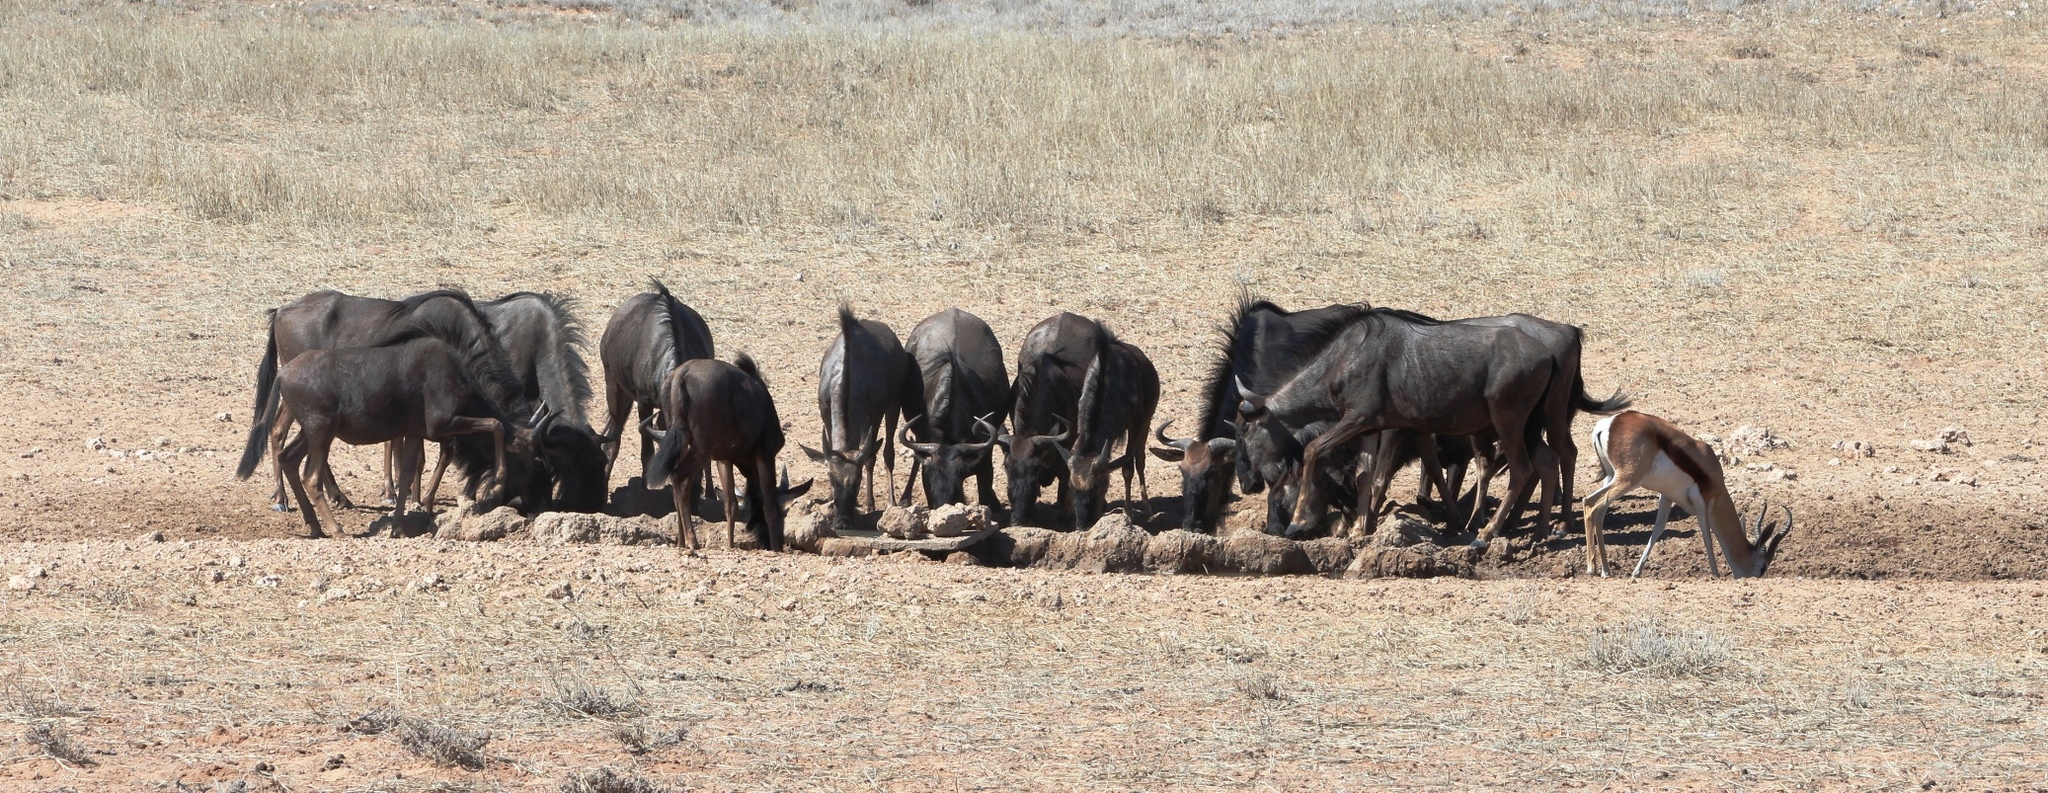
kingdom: Animalia
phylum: Chordata
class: Mammalia
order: Artiodactyla
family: Bovidae
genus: Connochaetes
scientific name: Connochaetes taurinus
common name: Blue wildebeest
